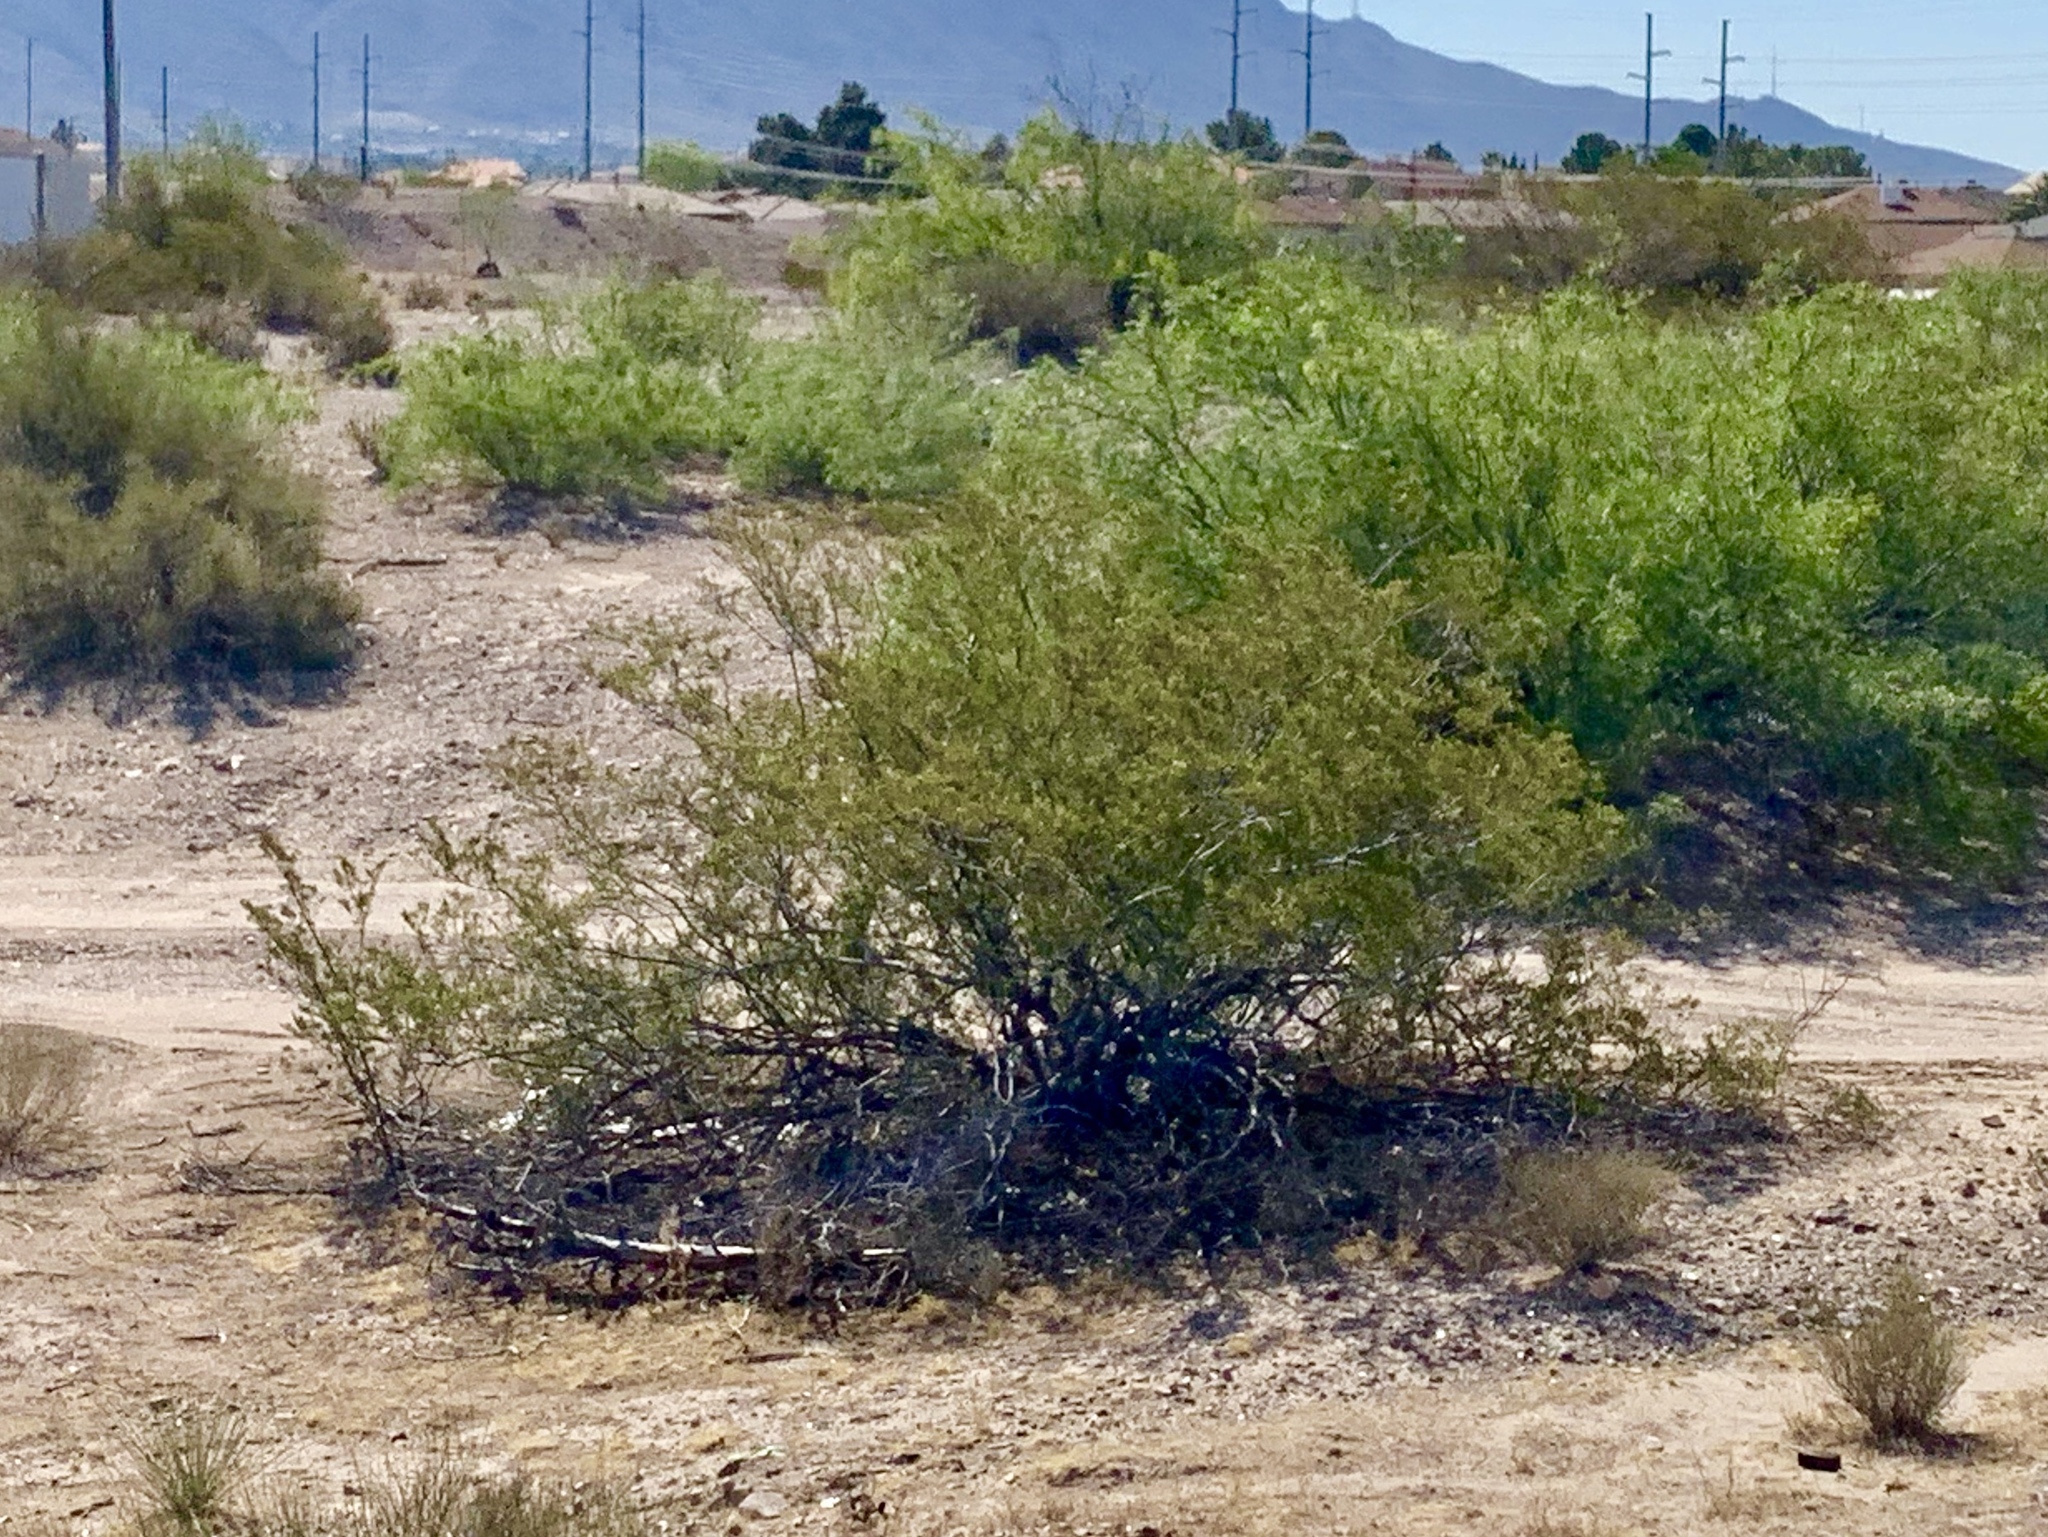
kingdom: Plantae
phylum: Tracheophyta
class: Magnoliopsida
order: Zygophyllales
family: Zygophyllaceae
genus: Larrea
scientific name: Larrea tridentata
